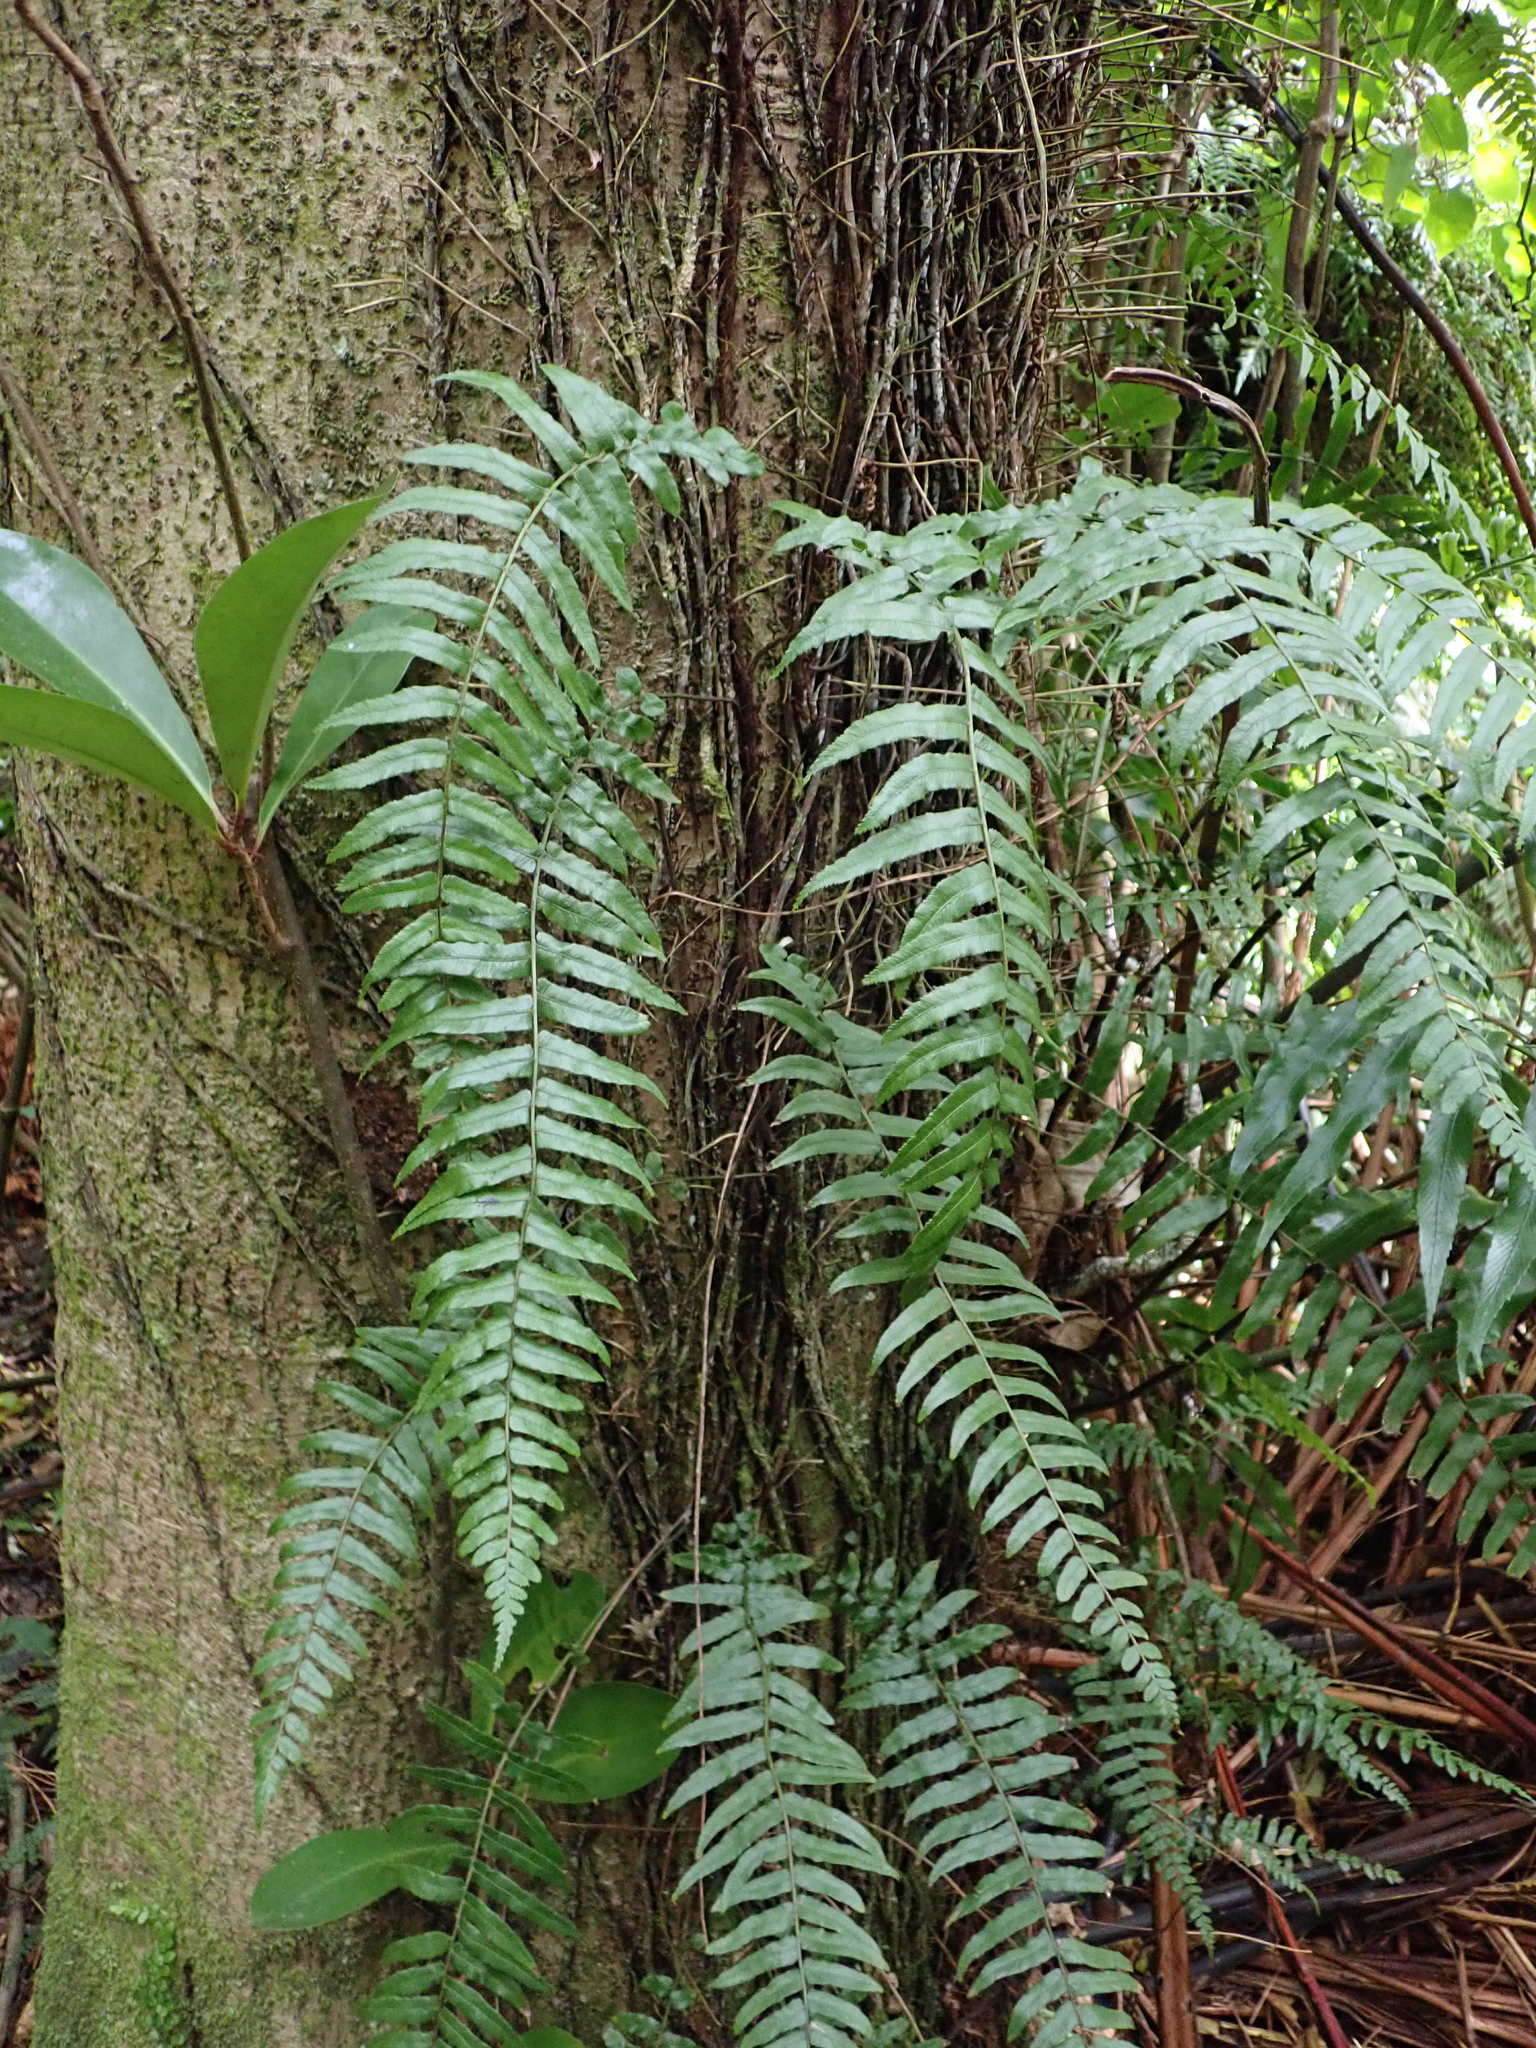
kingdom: Plantae
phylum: Tracheophyta
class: Polypodiopsida
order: Polypodiales
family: Blechnaceae
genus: Icarus
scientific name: Icarus filiformis
